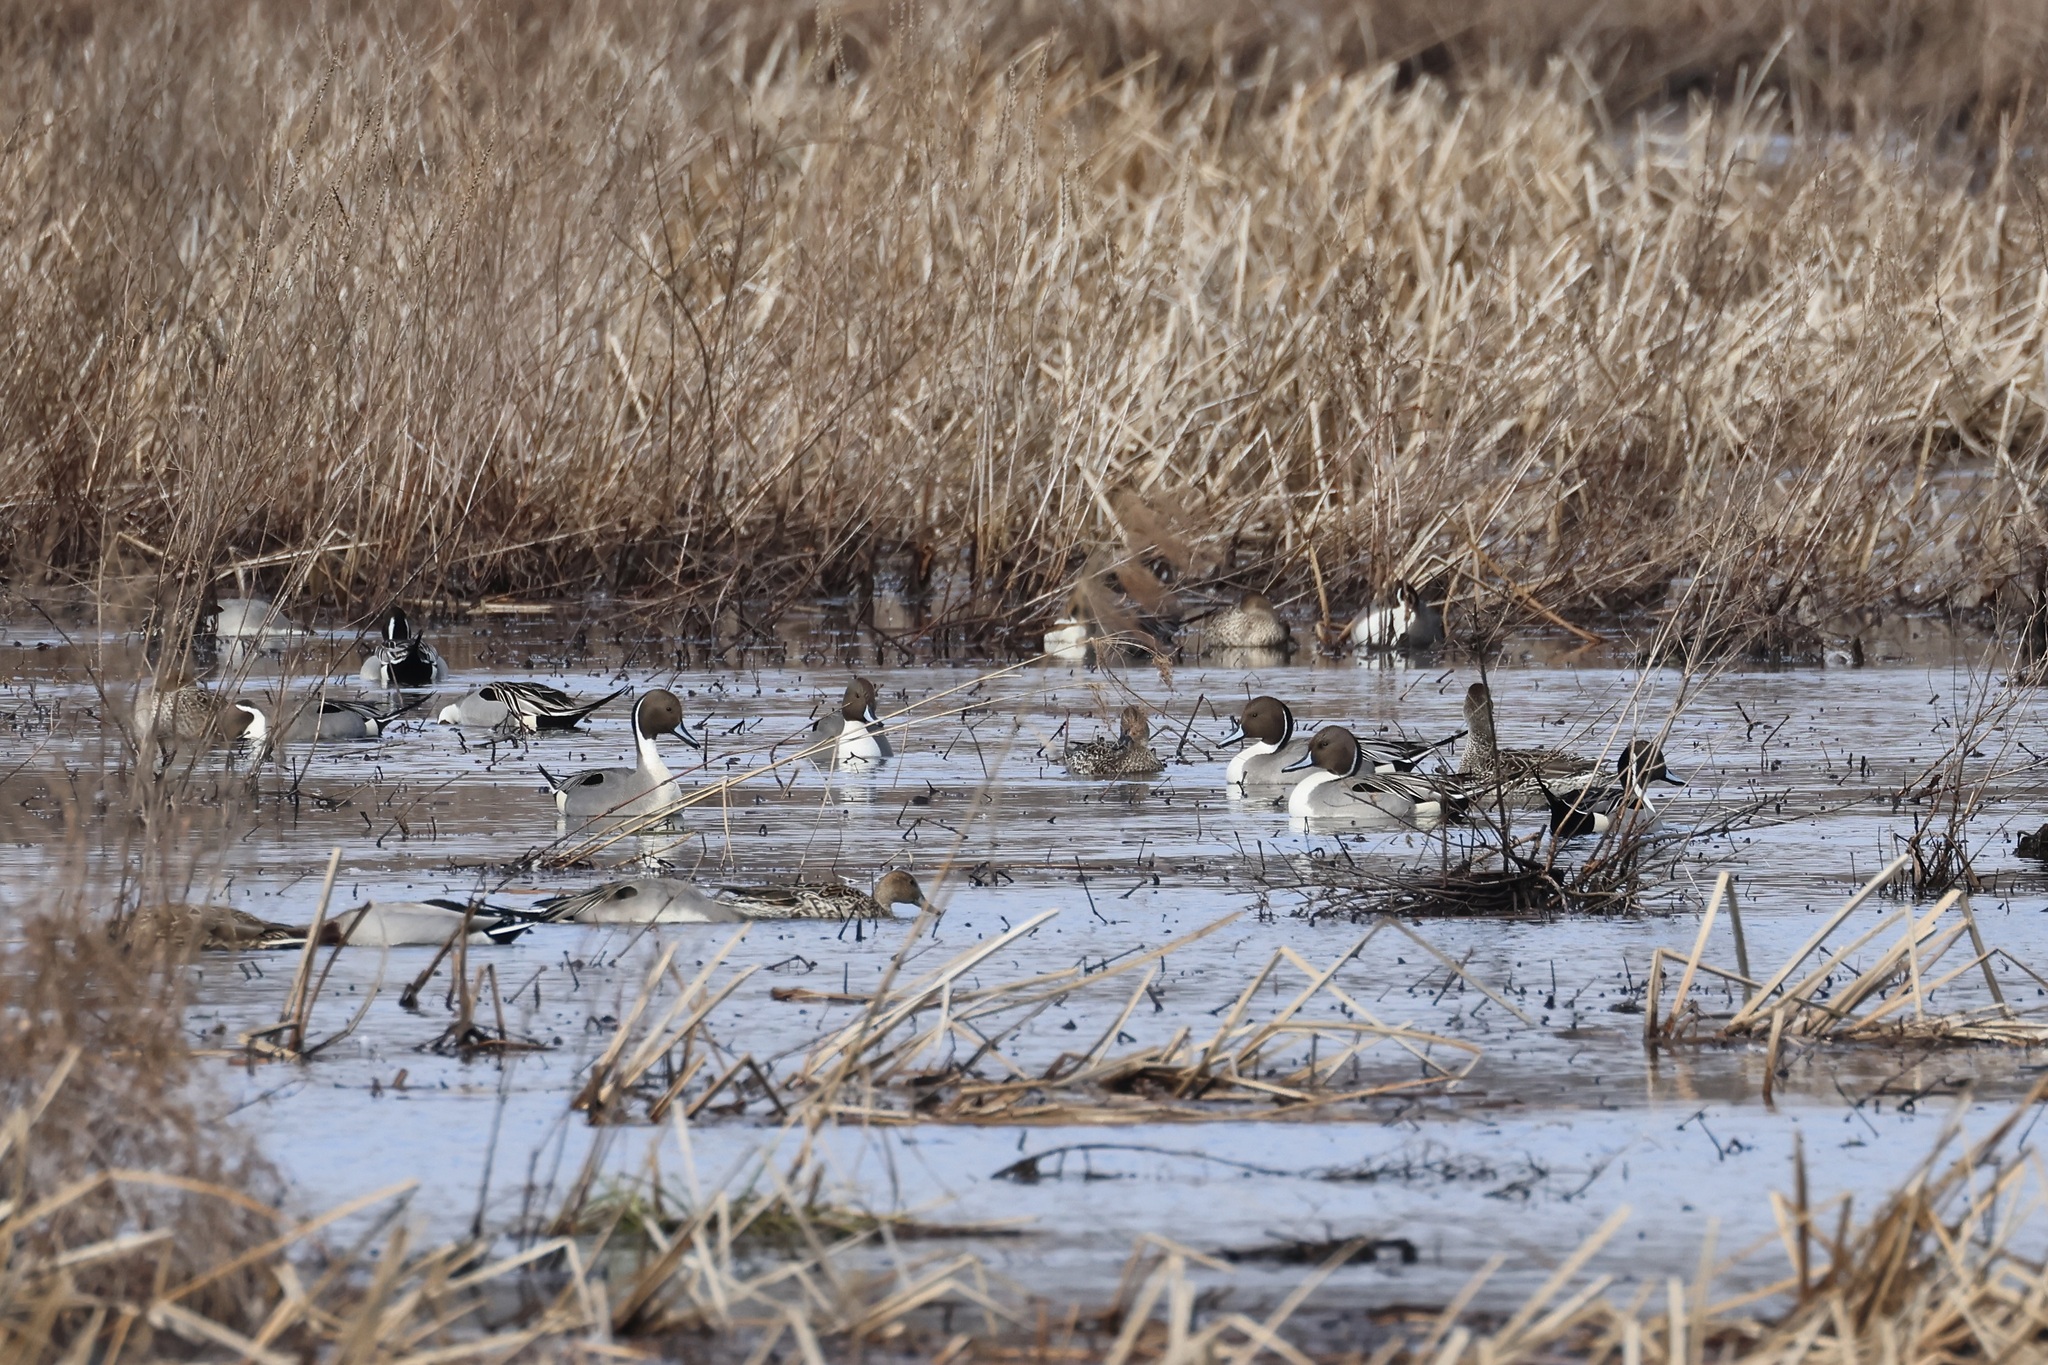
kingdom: Animalia
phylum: Chordata
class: Aves
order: Anseriformes
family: Anatidae
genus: Anas
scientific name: Anas acuta
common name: Northern pintail
